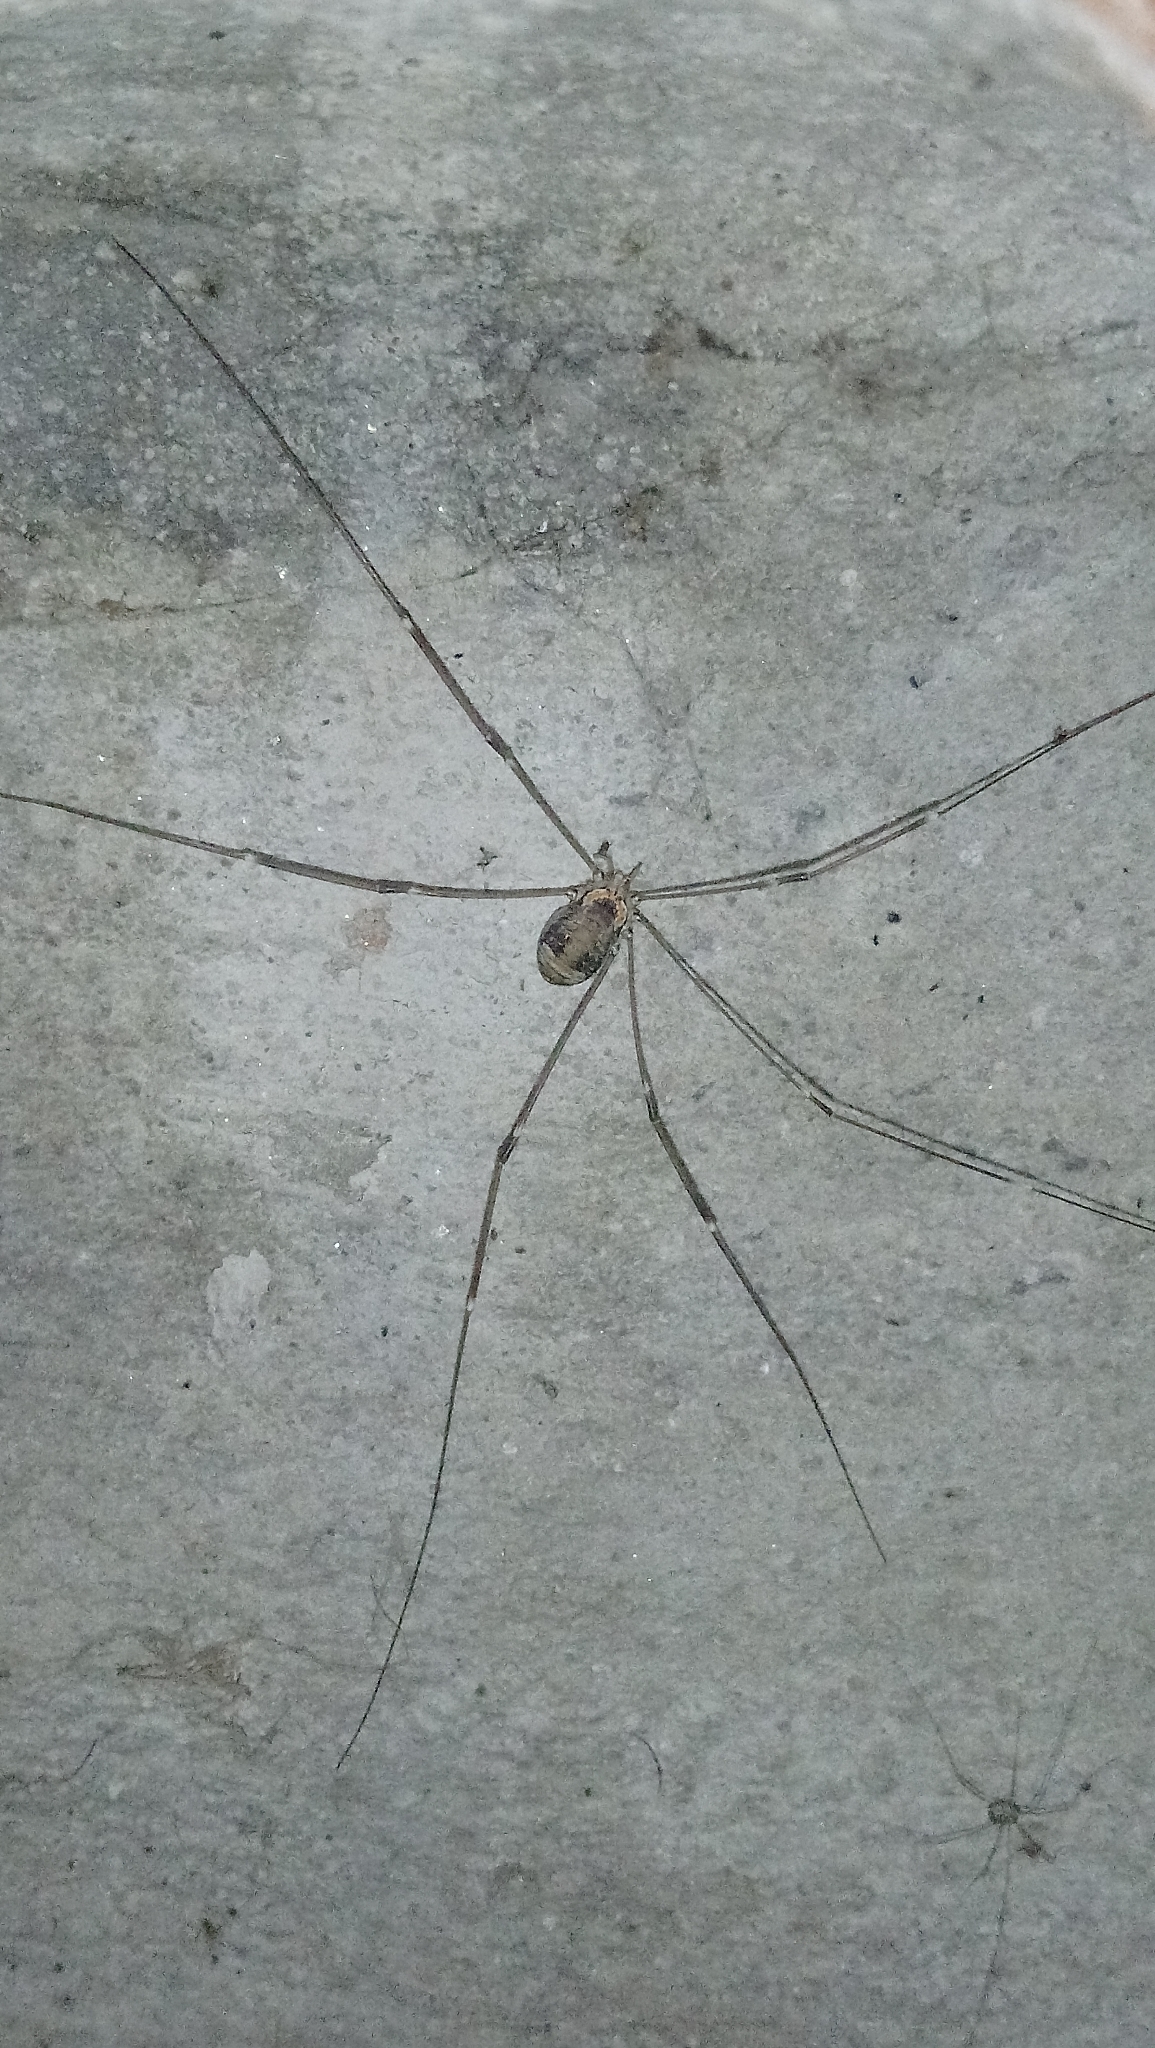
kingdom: Animalia
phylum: Arthropoda
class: Arachnida
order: Opiliones
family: Sclerosomatidae
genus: Leiobunum
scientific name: Leiobunum limbatum
